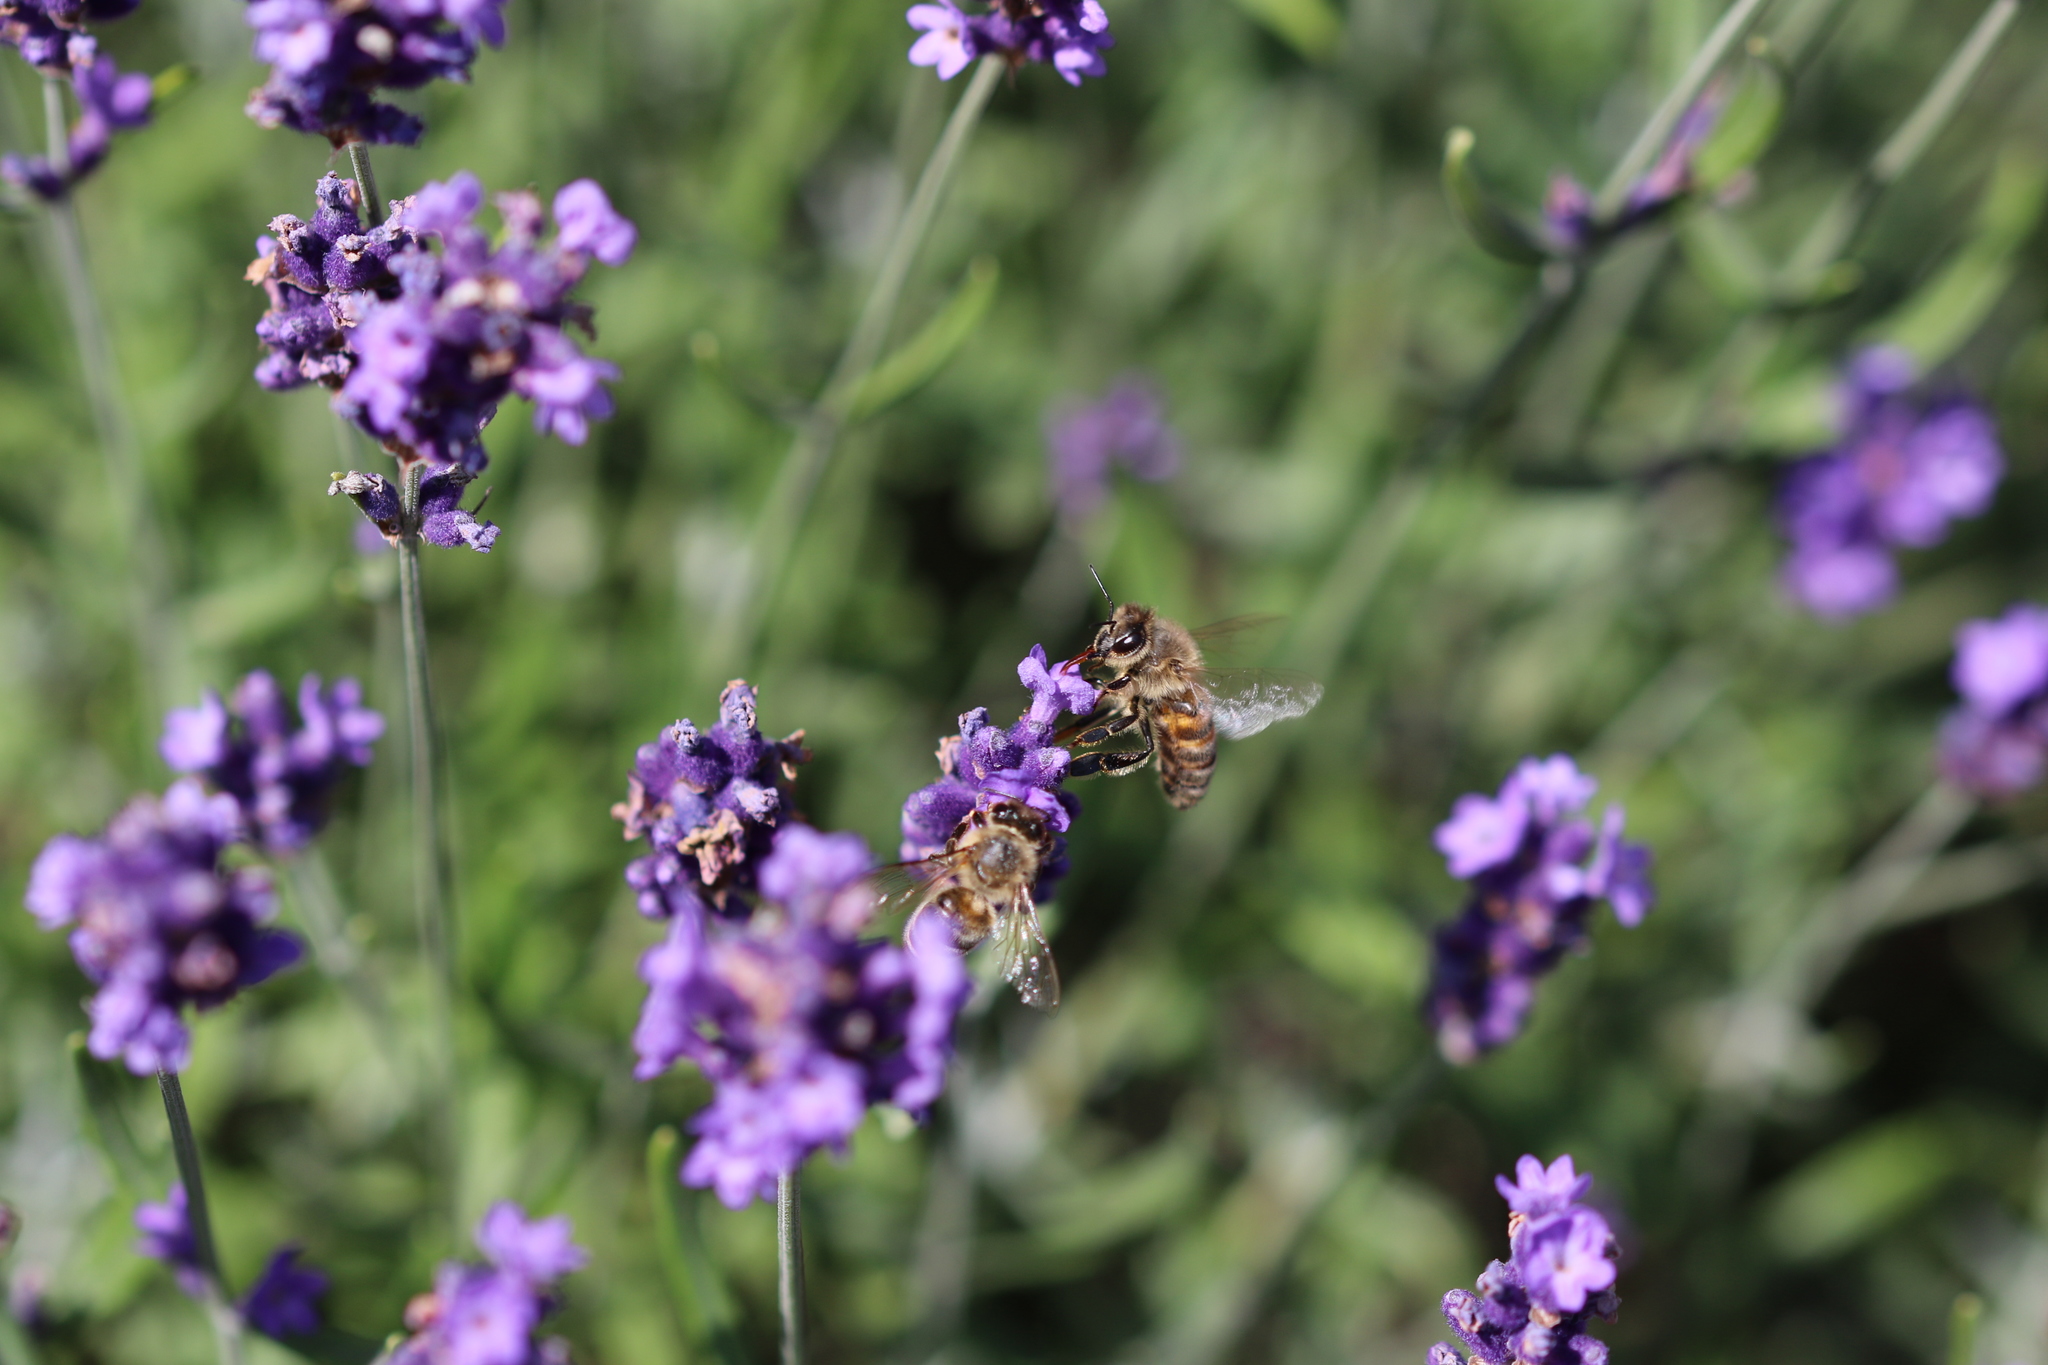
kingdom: Animalia
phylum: Arthropoda
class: Insecta
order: Hymenoptera
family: Apidae
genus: Apis
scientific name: Apis mellifera
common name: Honey bee
